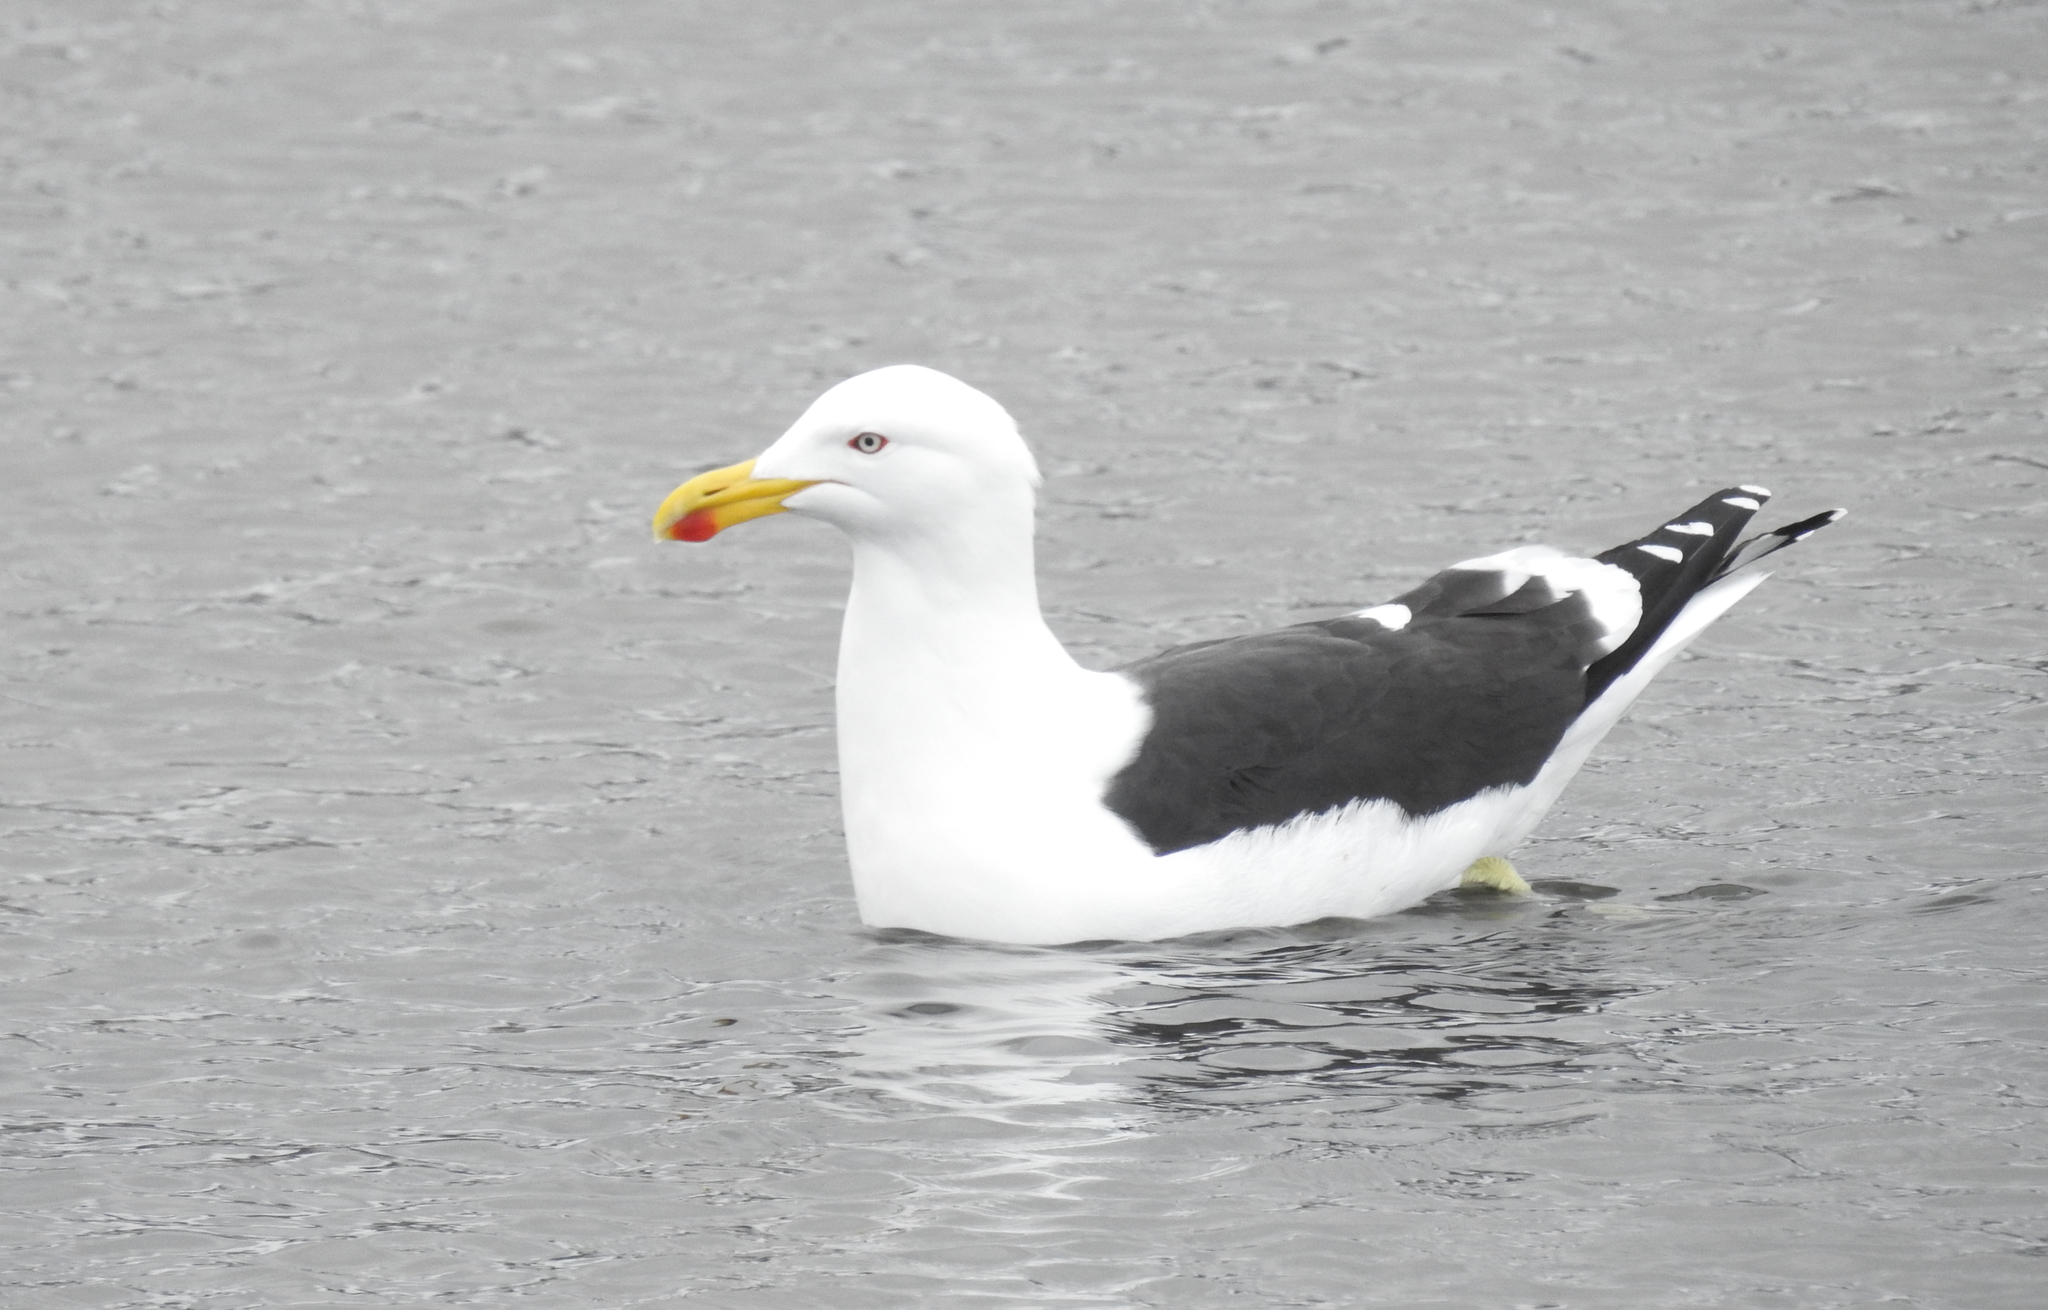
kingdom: Animalia
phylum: Chordata
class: Aves
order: Charadriiformes
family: Laridae
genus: Larus
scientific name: Larus dominicanus
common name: Kelp gull
